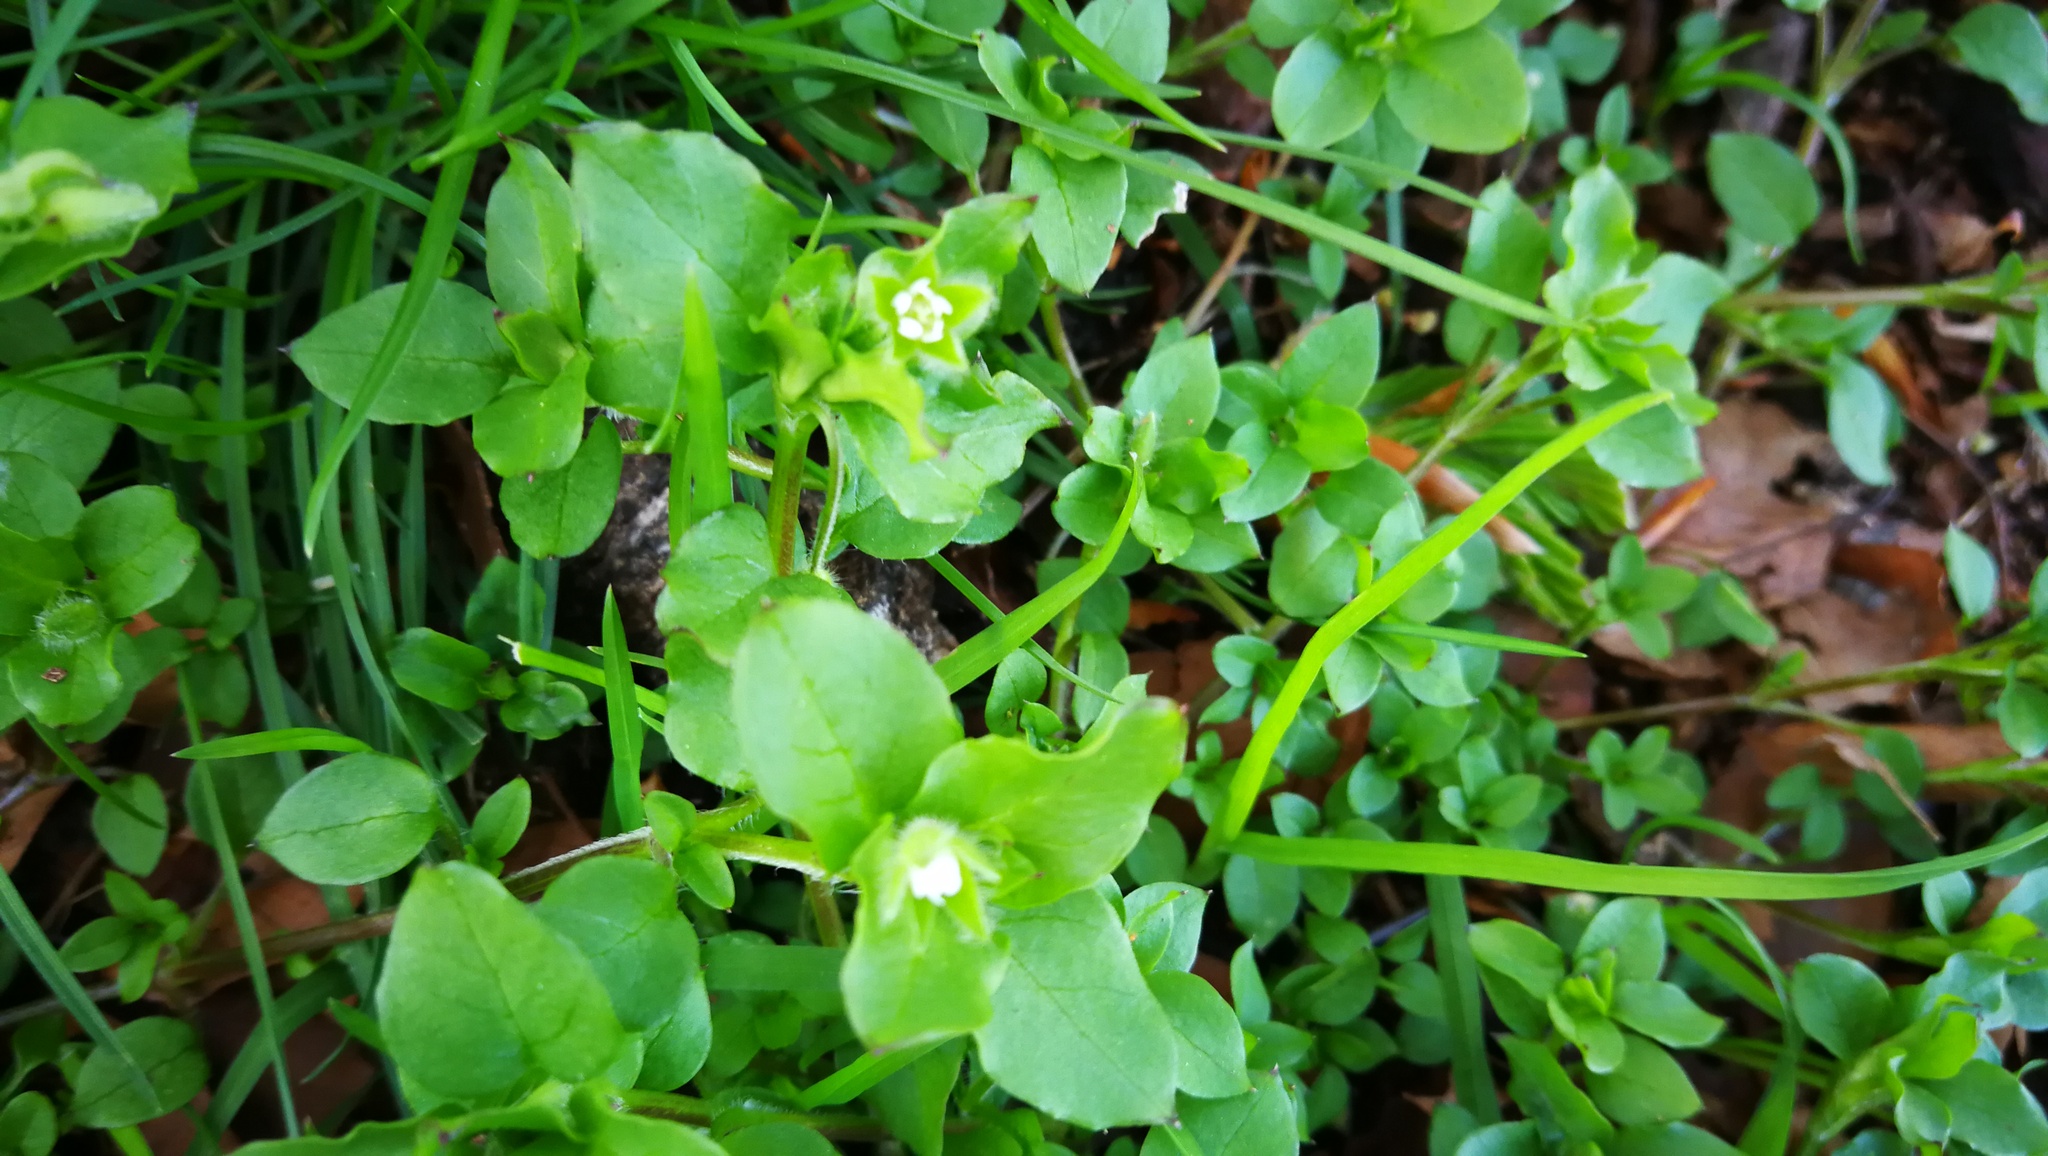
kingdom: Plantae
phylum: Tracheophyta
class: Magnoliopsida
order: Caryophyllales
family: Caryophyllaceae
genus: Stellaria
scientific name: Stellaria media
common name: Common chickweed
